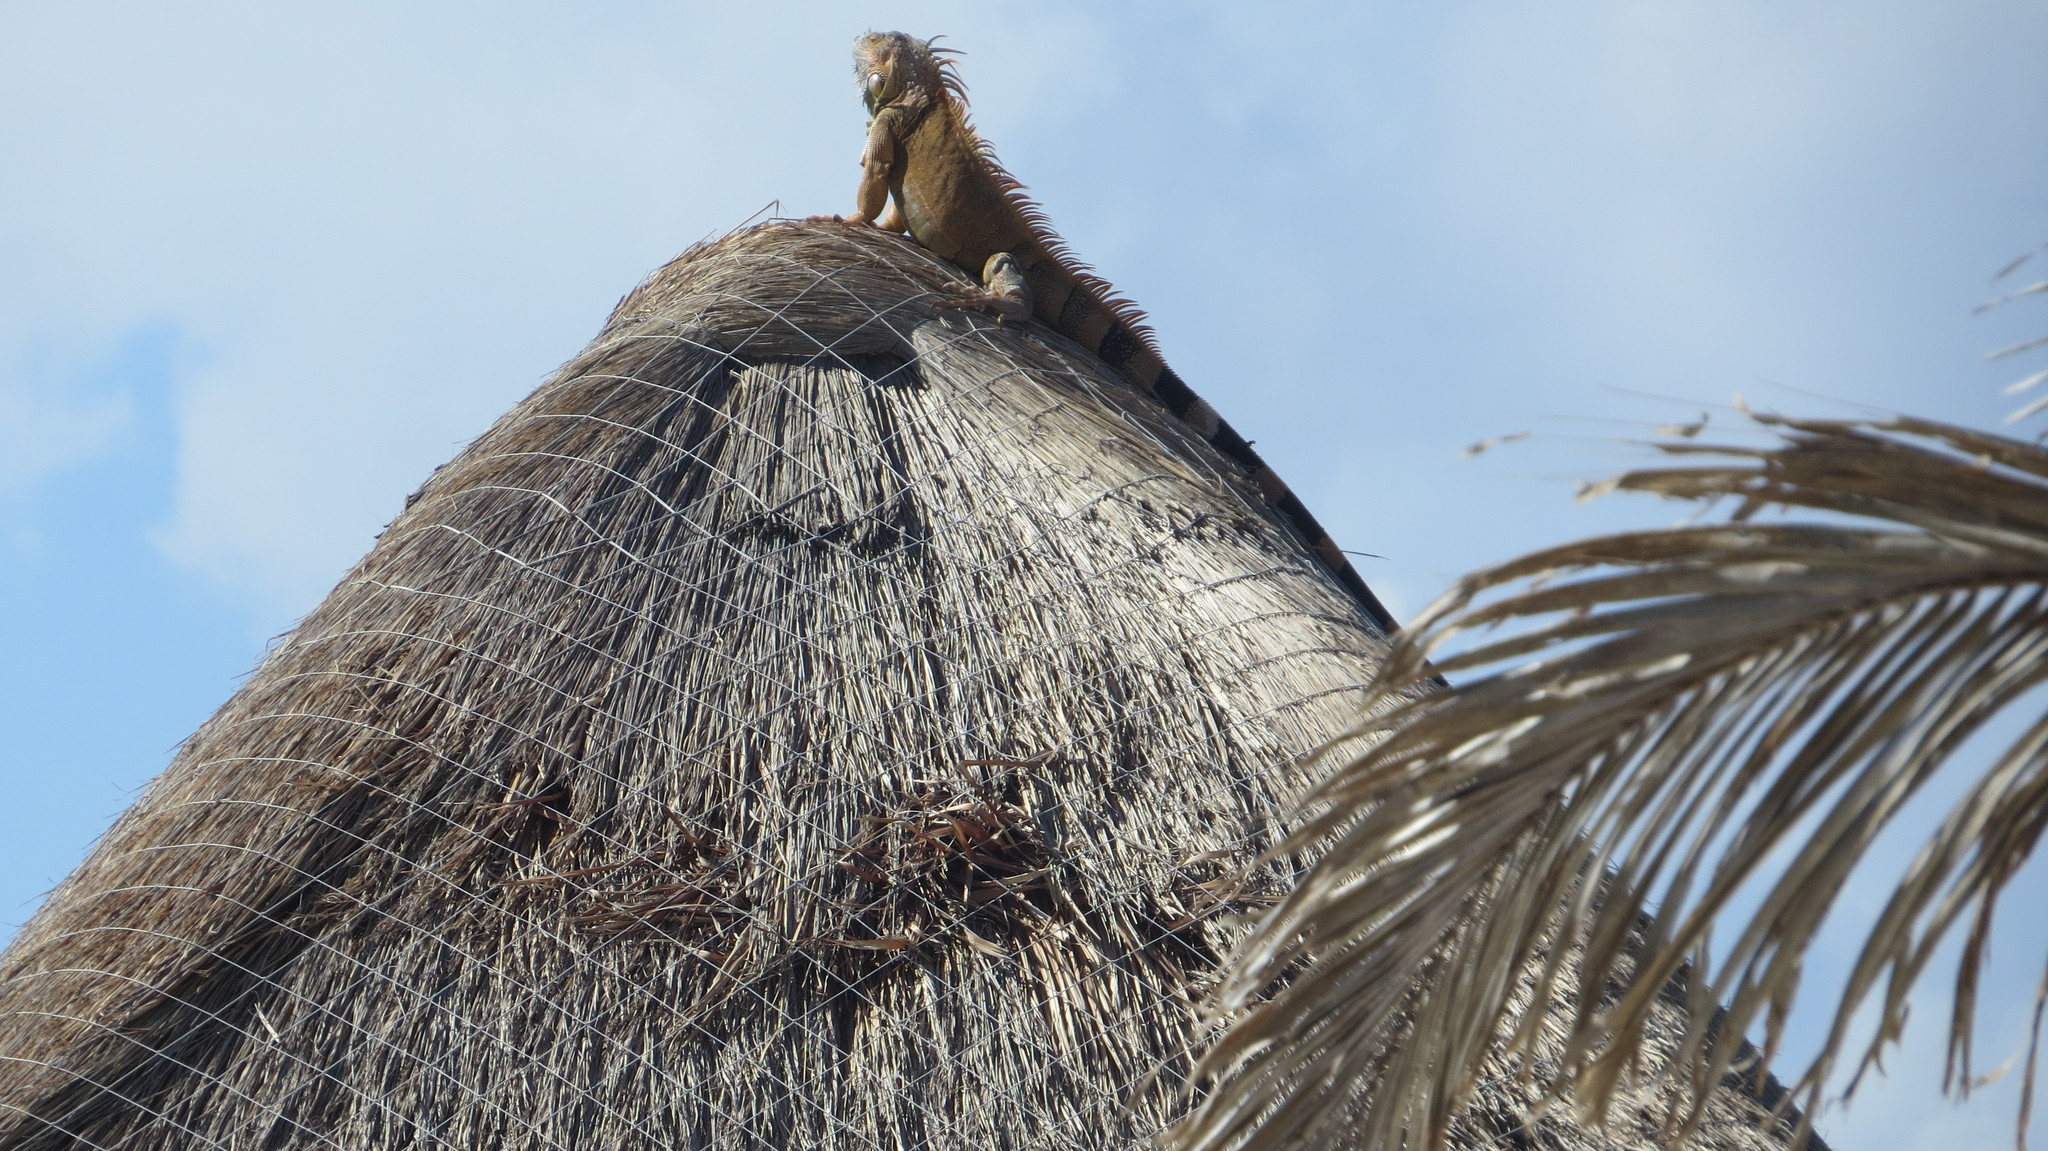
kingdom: Animalia
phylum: Chordata
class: Squamata
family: Iguanidae
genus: Iguana
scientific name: Iguana iguana
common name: Green iguana
